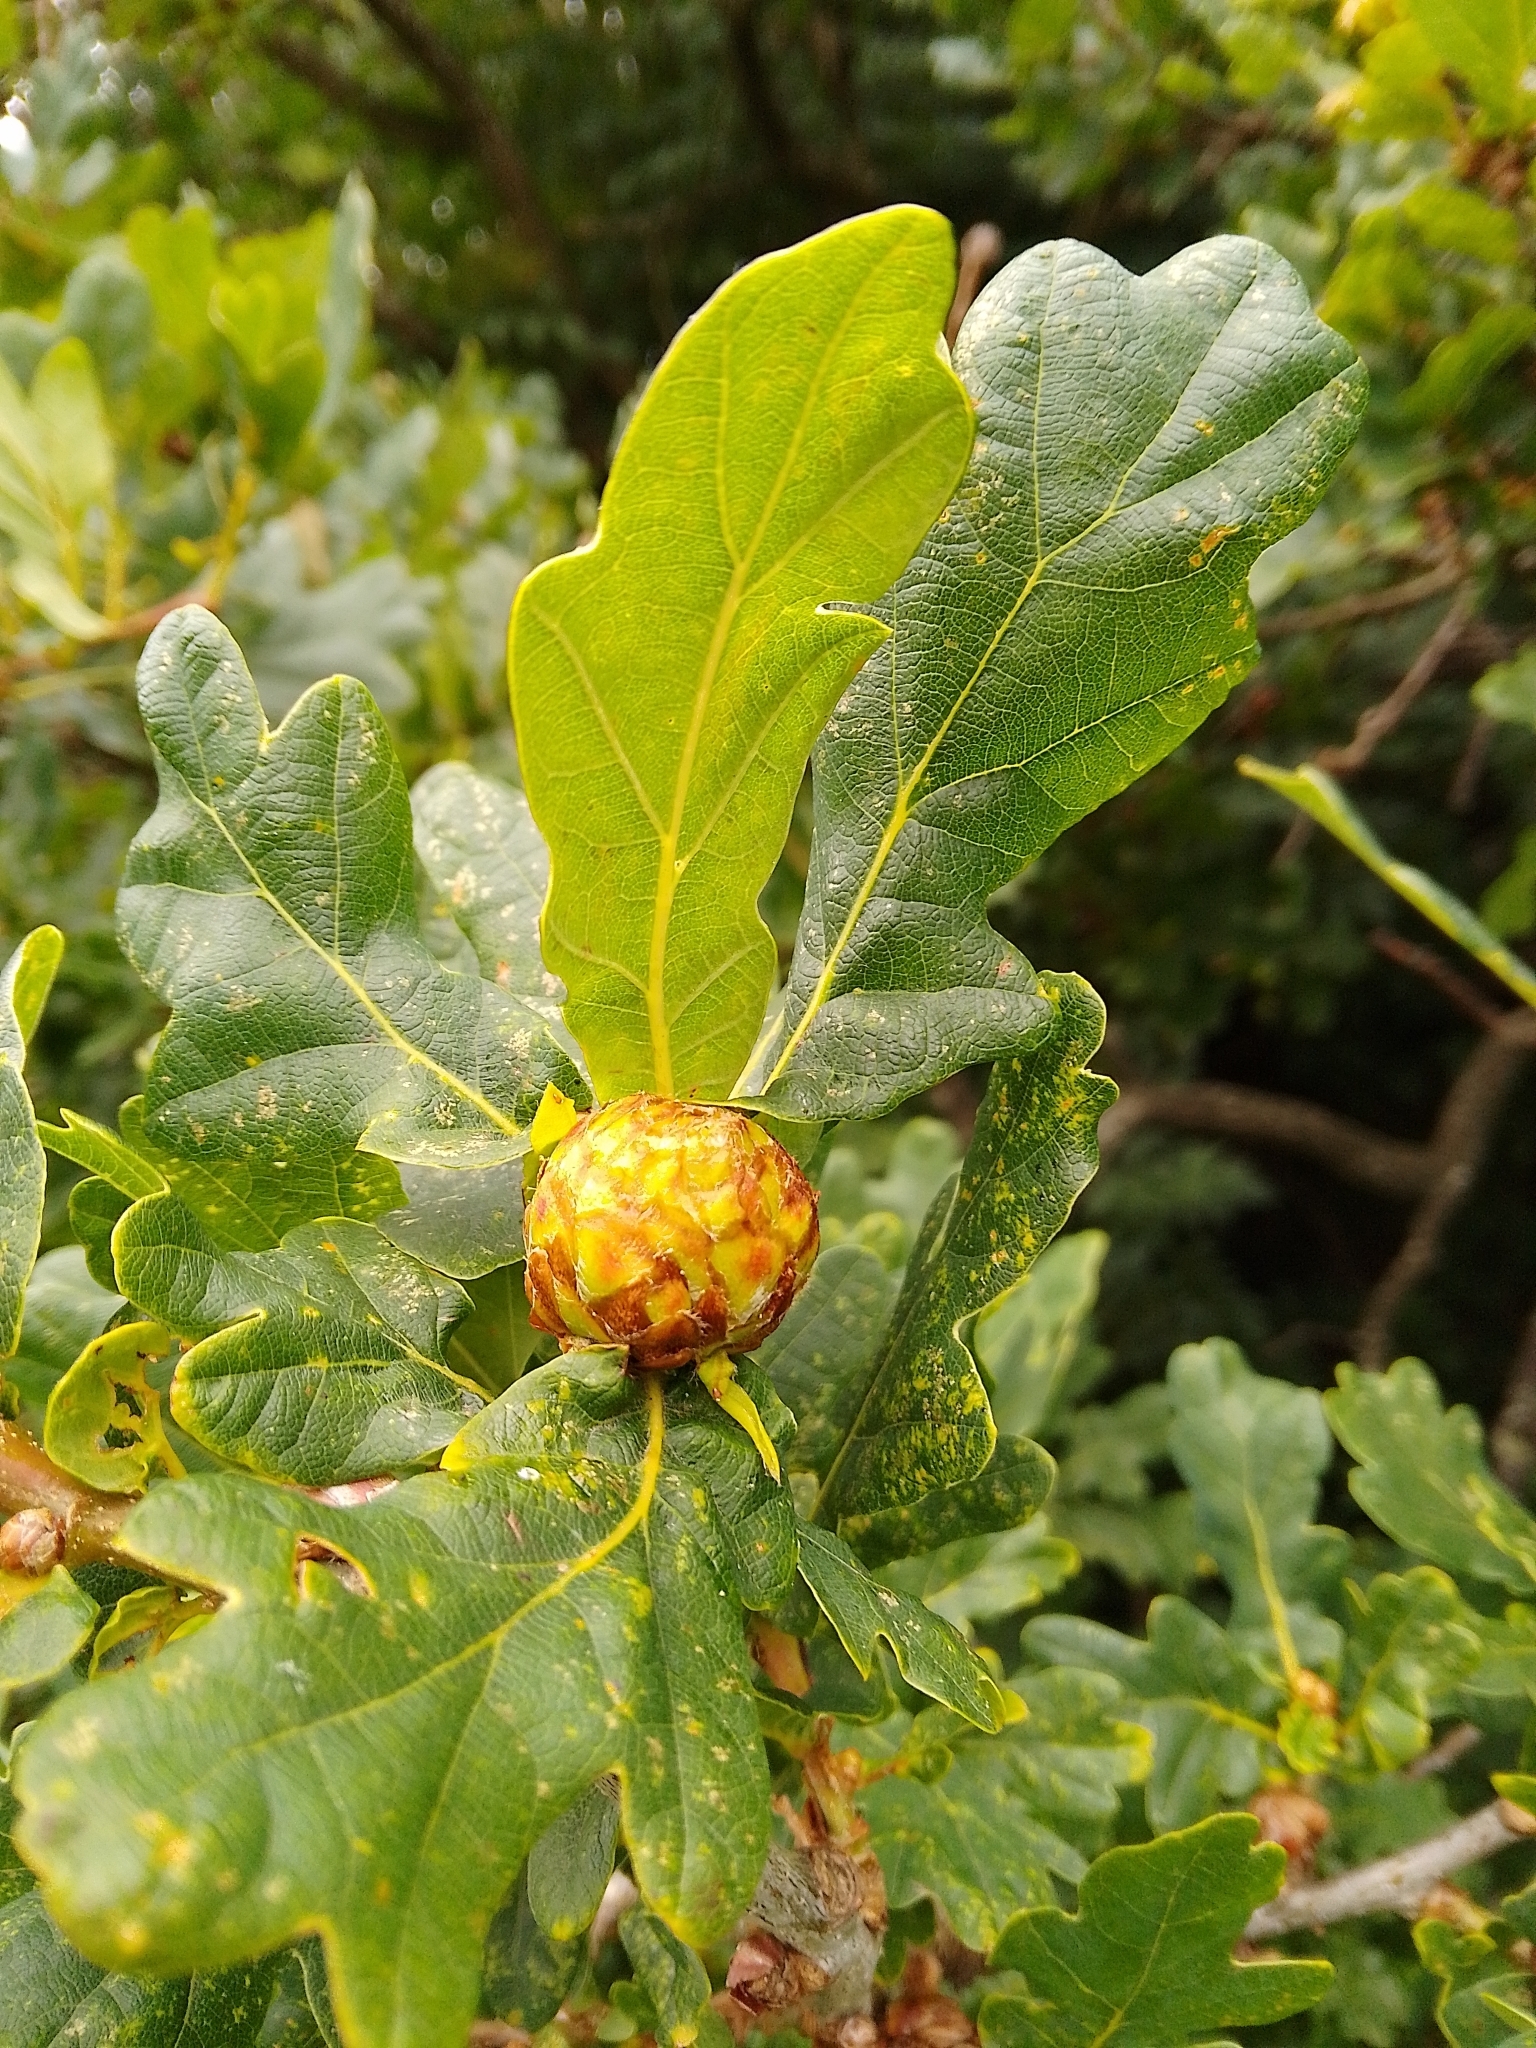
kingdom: Animalia
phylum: Arthropoda
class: Insecta
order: Hymenoptera
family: Cynipidae
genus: Andricus
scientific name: Andricus foecundatrix
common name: Artichoke gall
